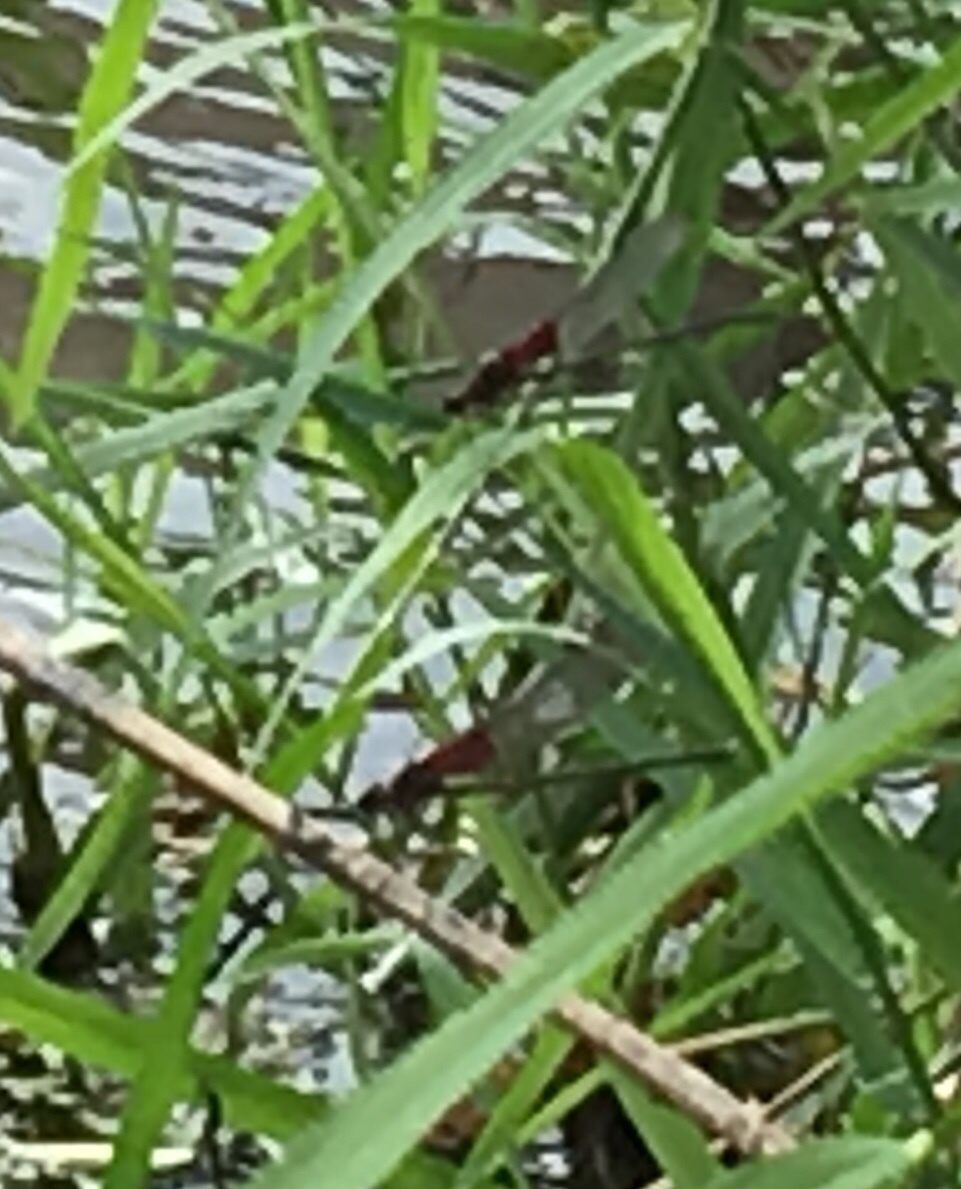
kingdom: Animalia
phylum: Arthropoda
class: Insecta
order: Odonata
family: Calopterygidae
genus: Hetaerina
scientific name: Hetaerina americana
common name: American rubyspot
